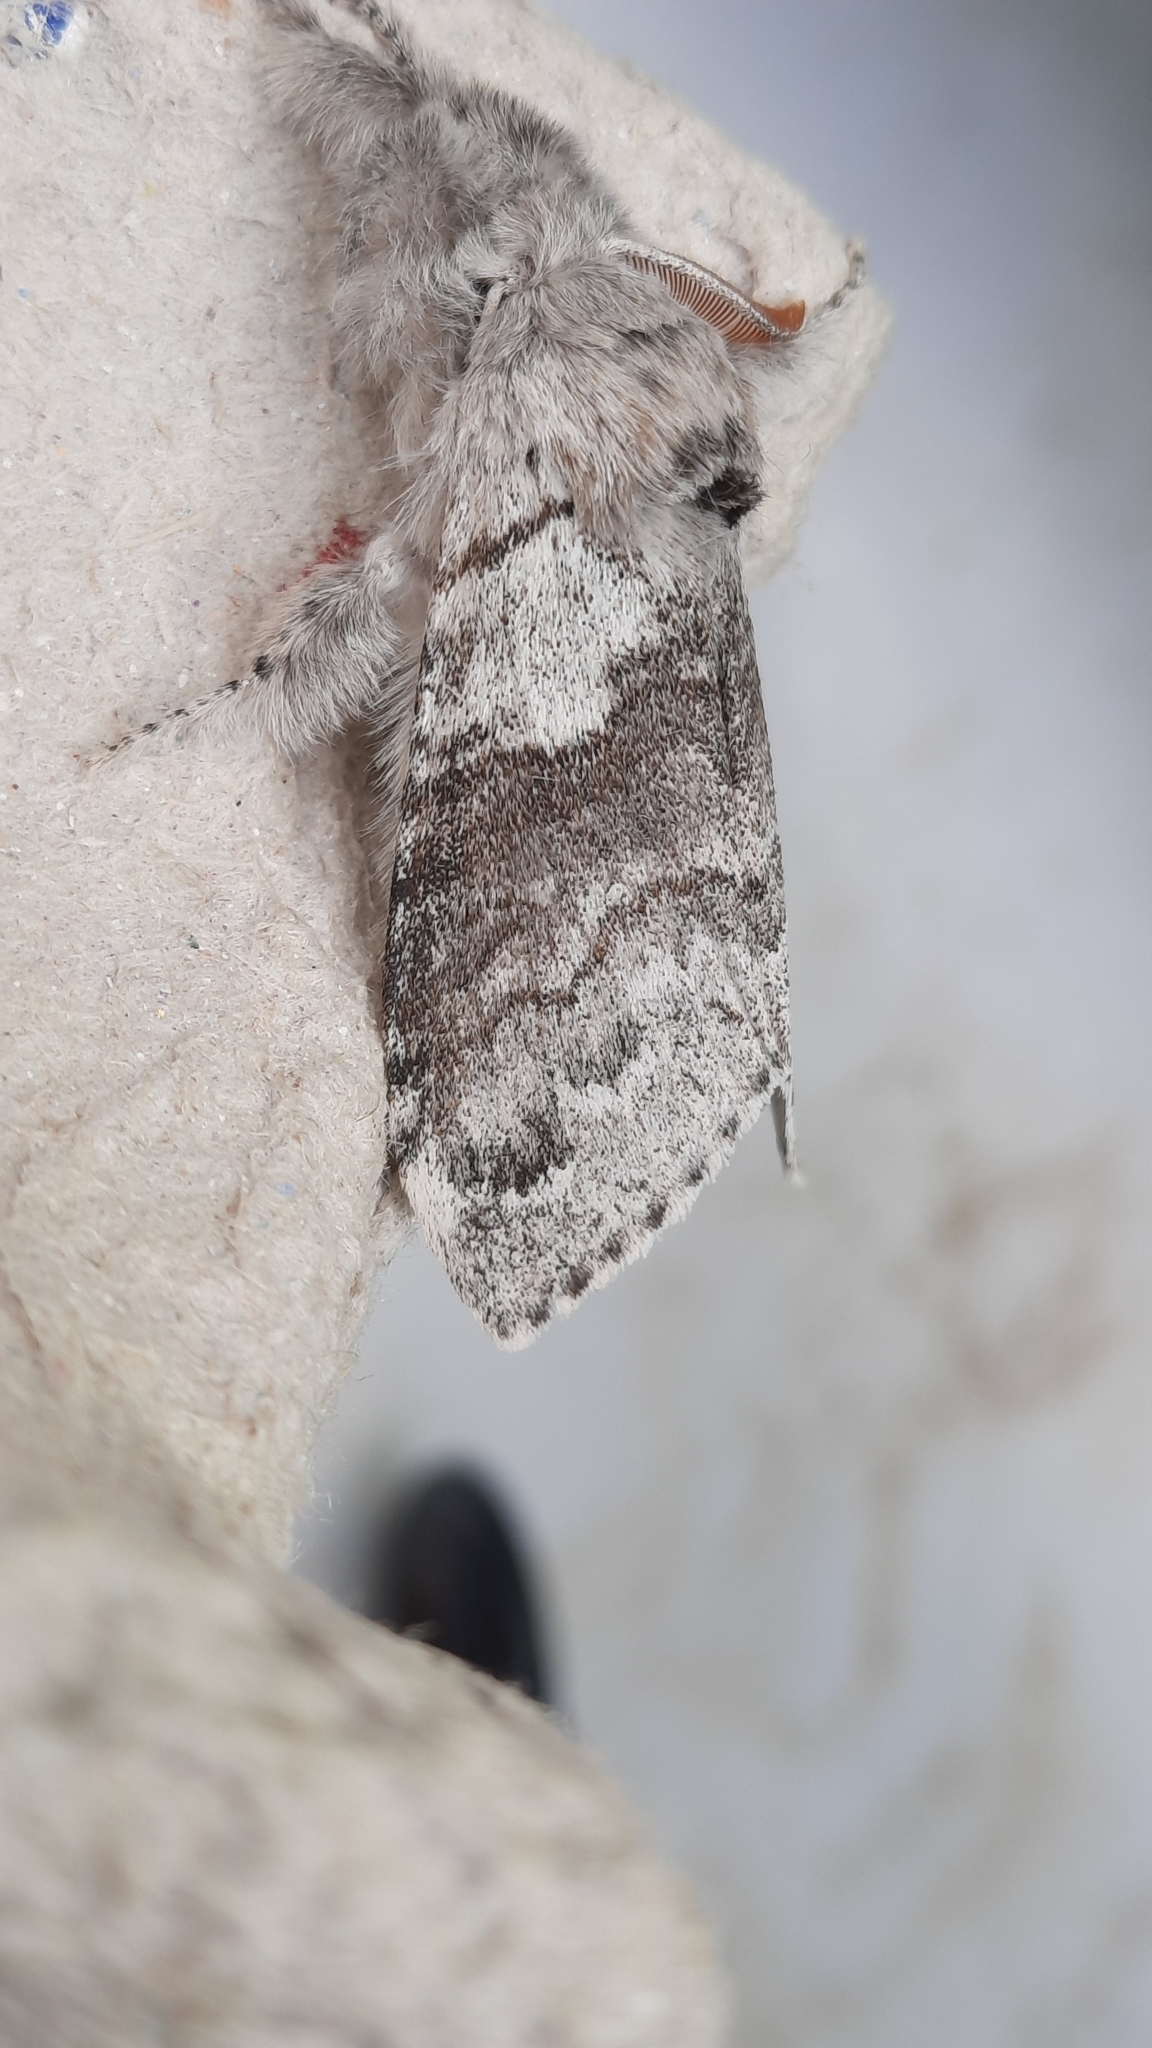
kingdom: Animalia
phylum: Arthropoda
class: Insecta
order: Lepidoptera
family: Erebidae
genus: Calliteara
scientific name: Calliteara pudibunda
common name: Pale tussock
